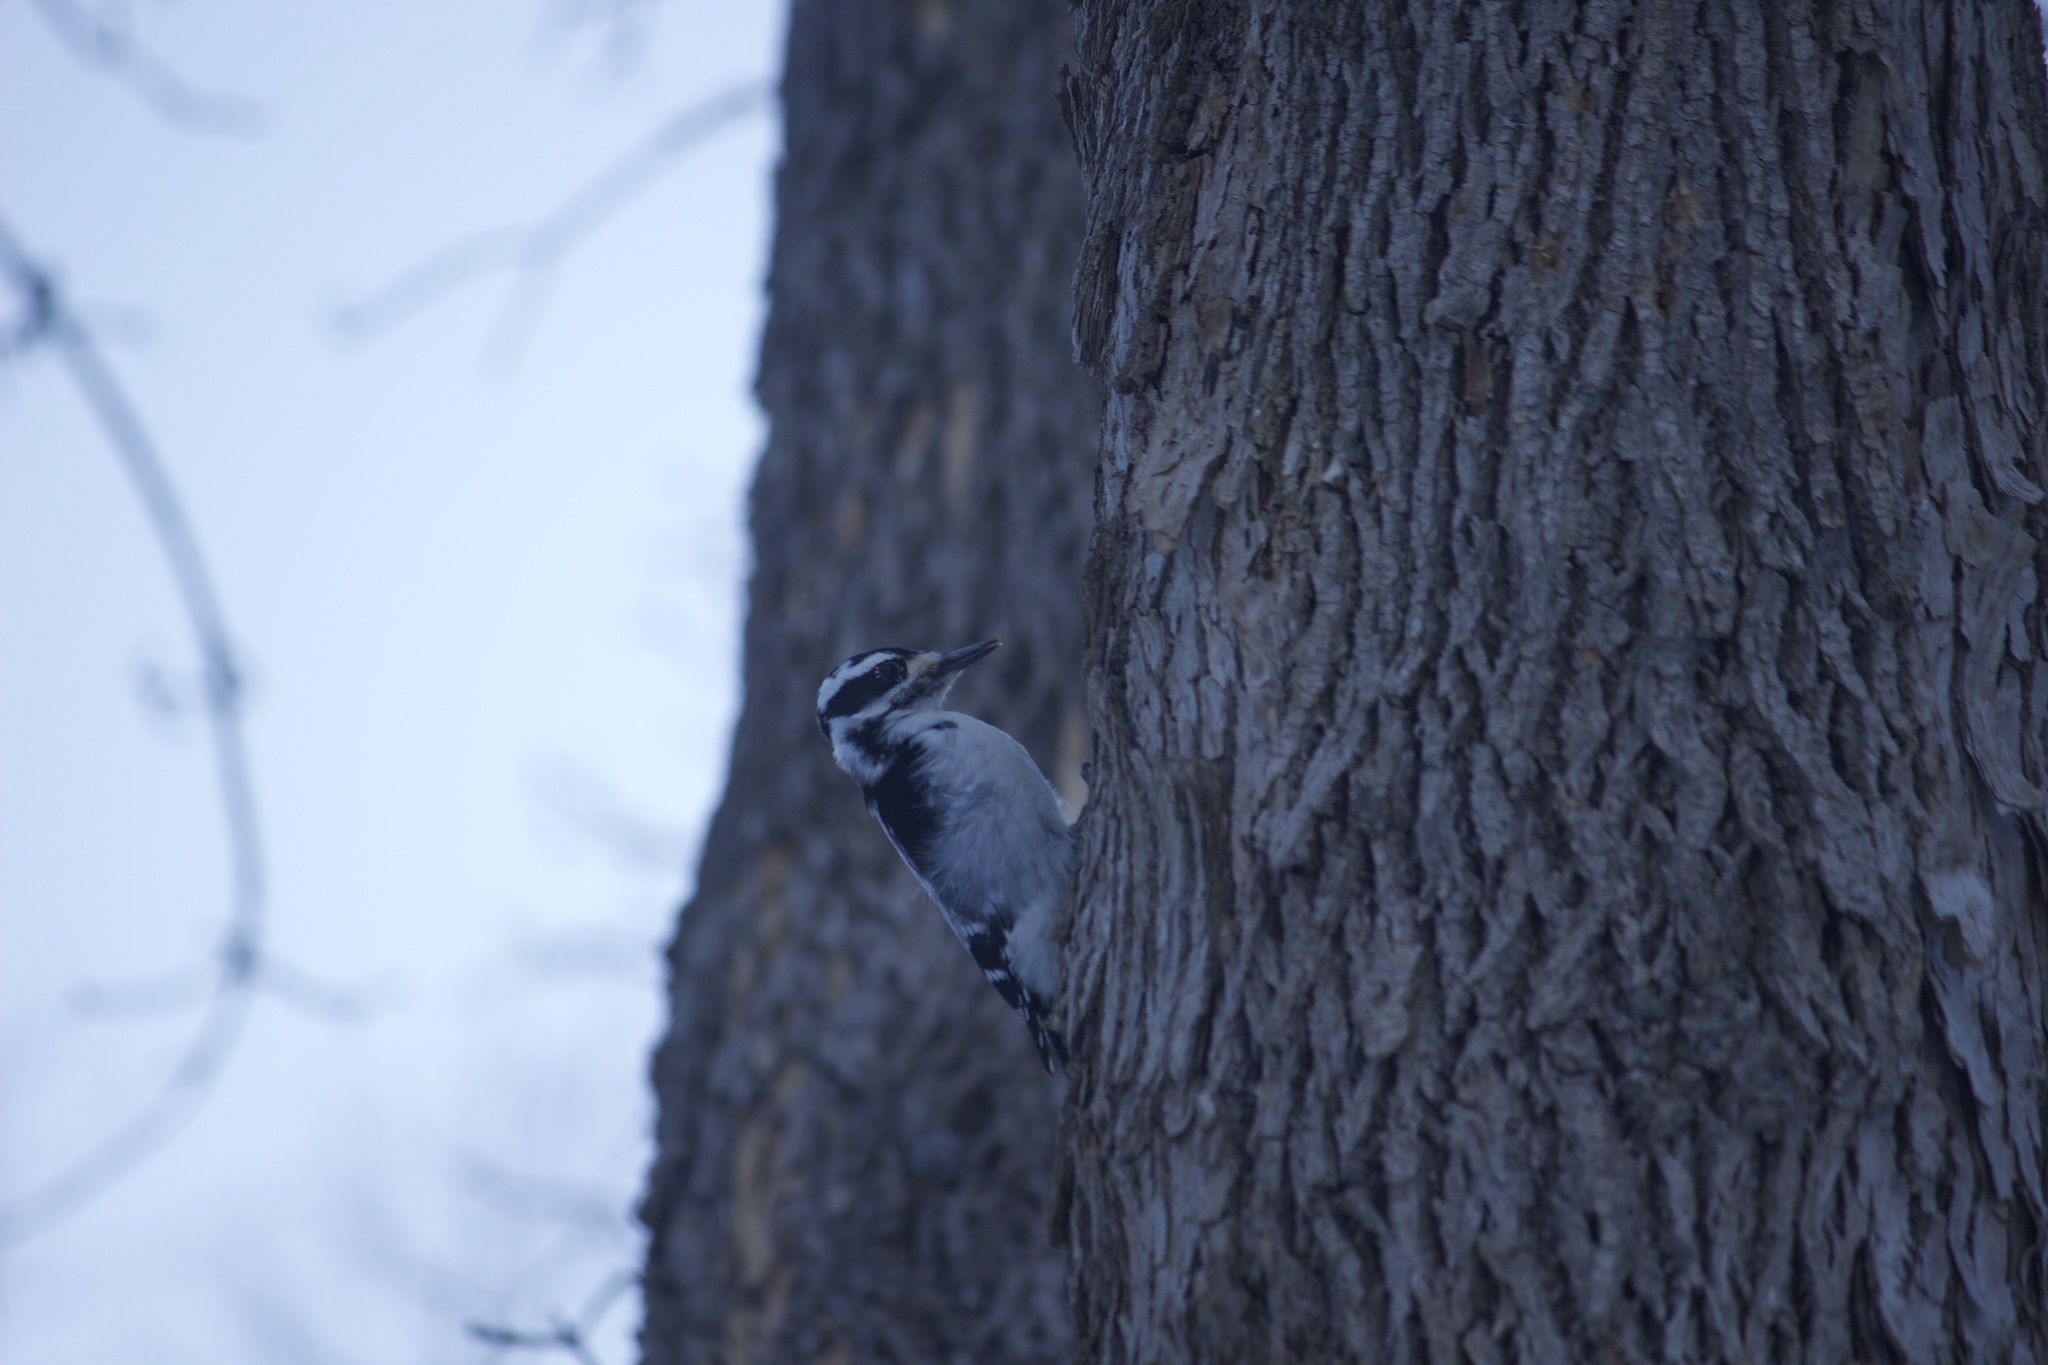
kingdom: Animalia
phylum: Chordata
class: Aves
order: Piciformes
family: Picidae
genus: Leuconotopicus
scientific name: Leuconotopicus villosus
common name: Hairy woodpecker
